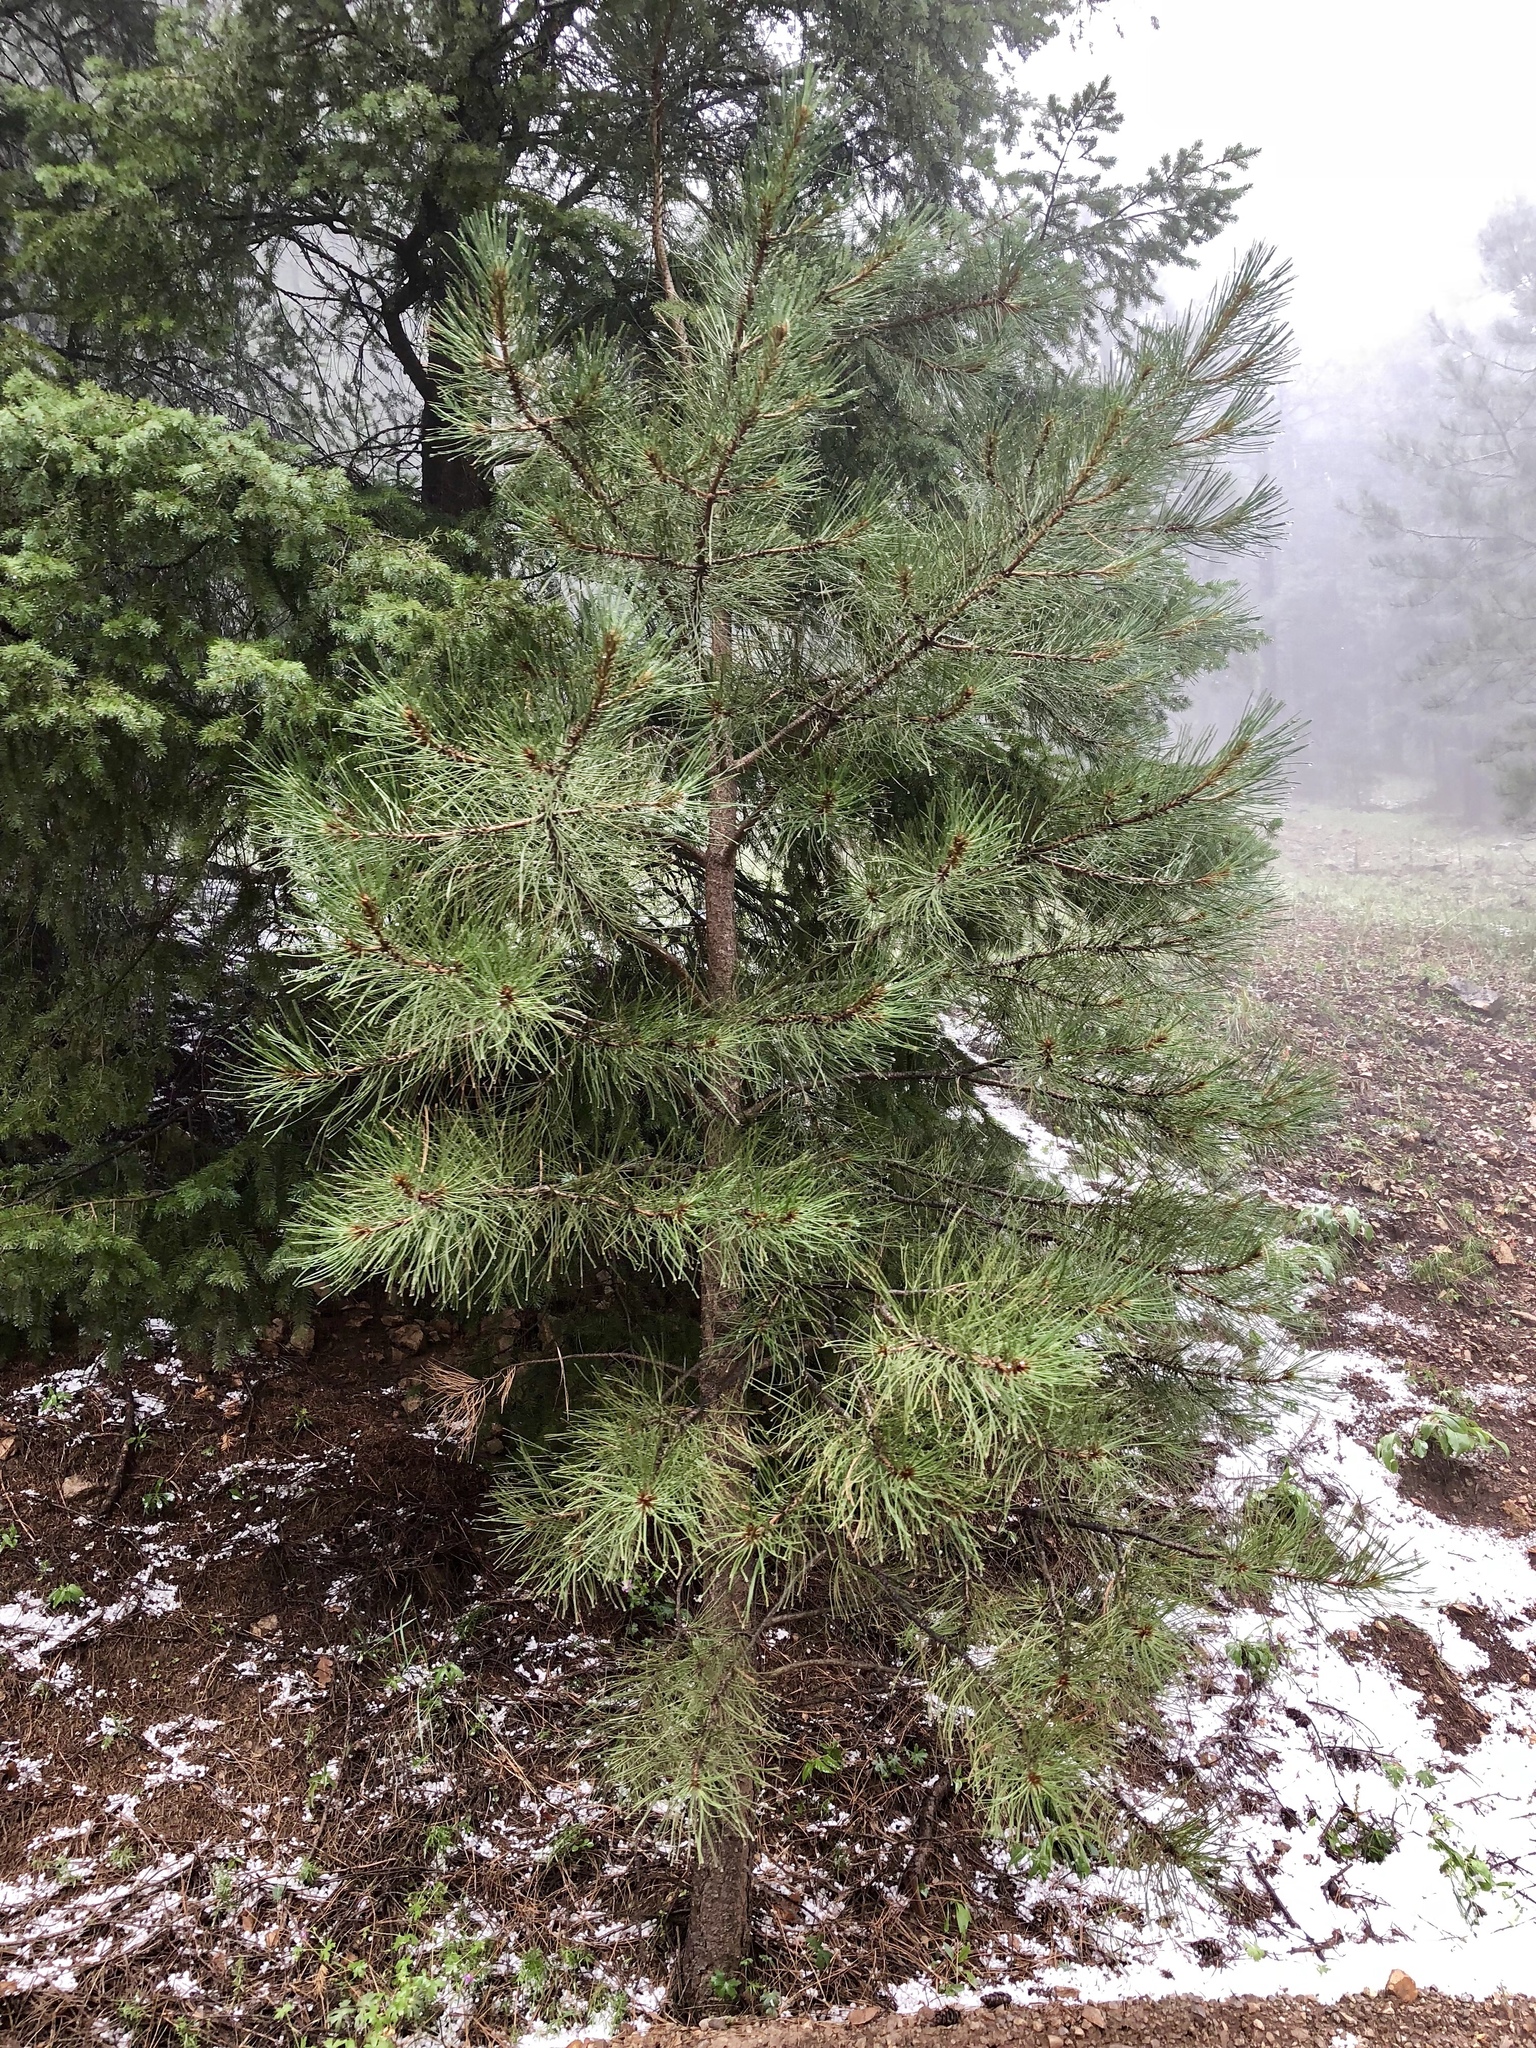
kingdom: Plantae
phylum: Tracheophyta
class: Pinopsida
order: Pinales
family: Pinaceae
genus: Pinus
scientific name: Pinus ponderosa
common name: Western yellow-pine
